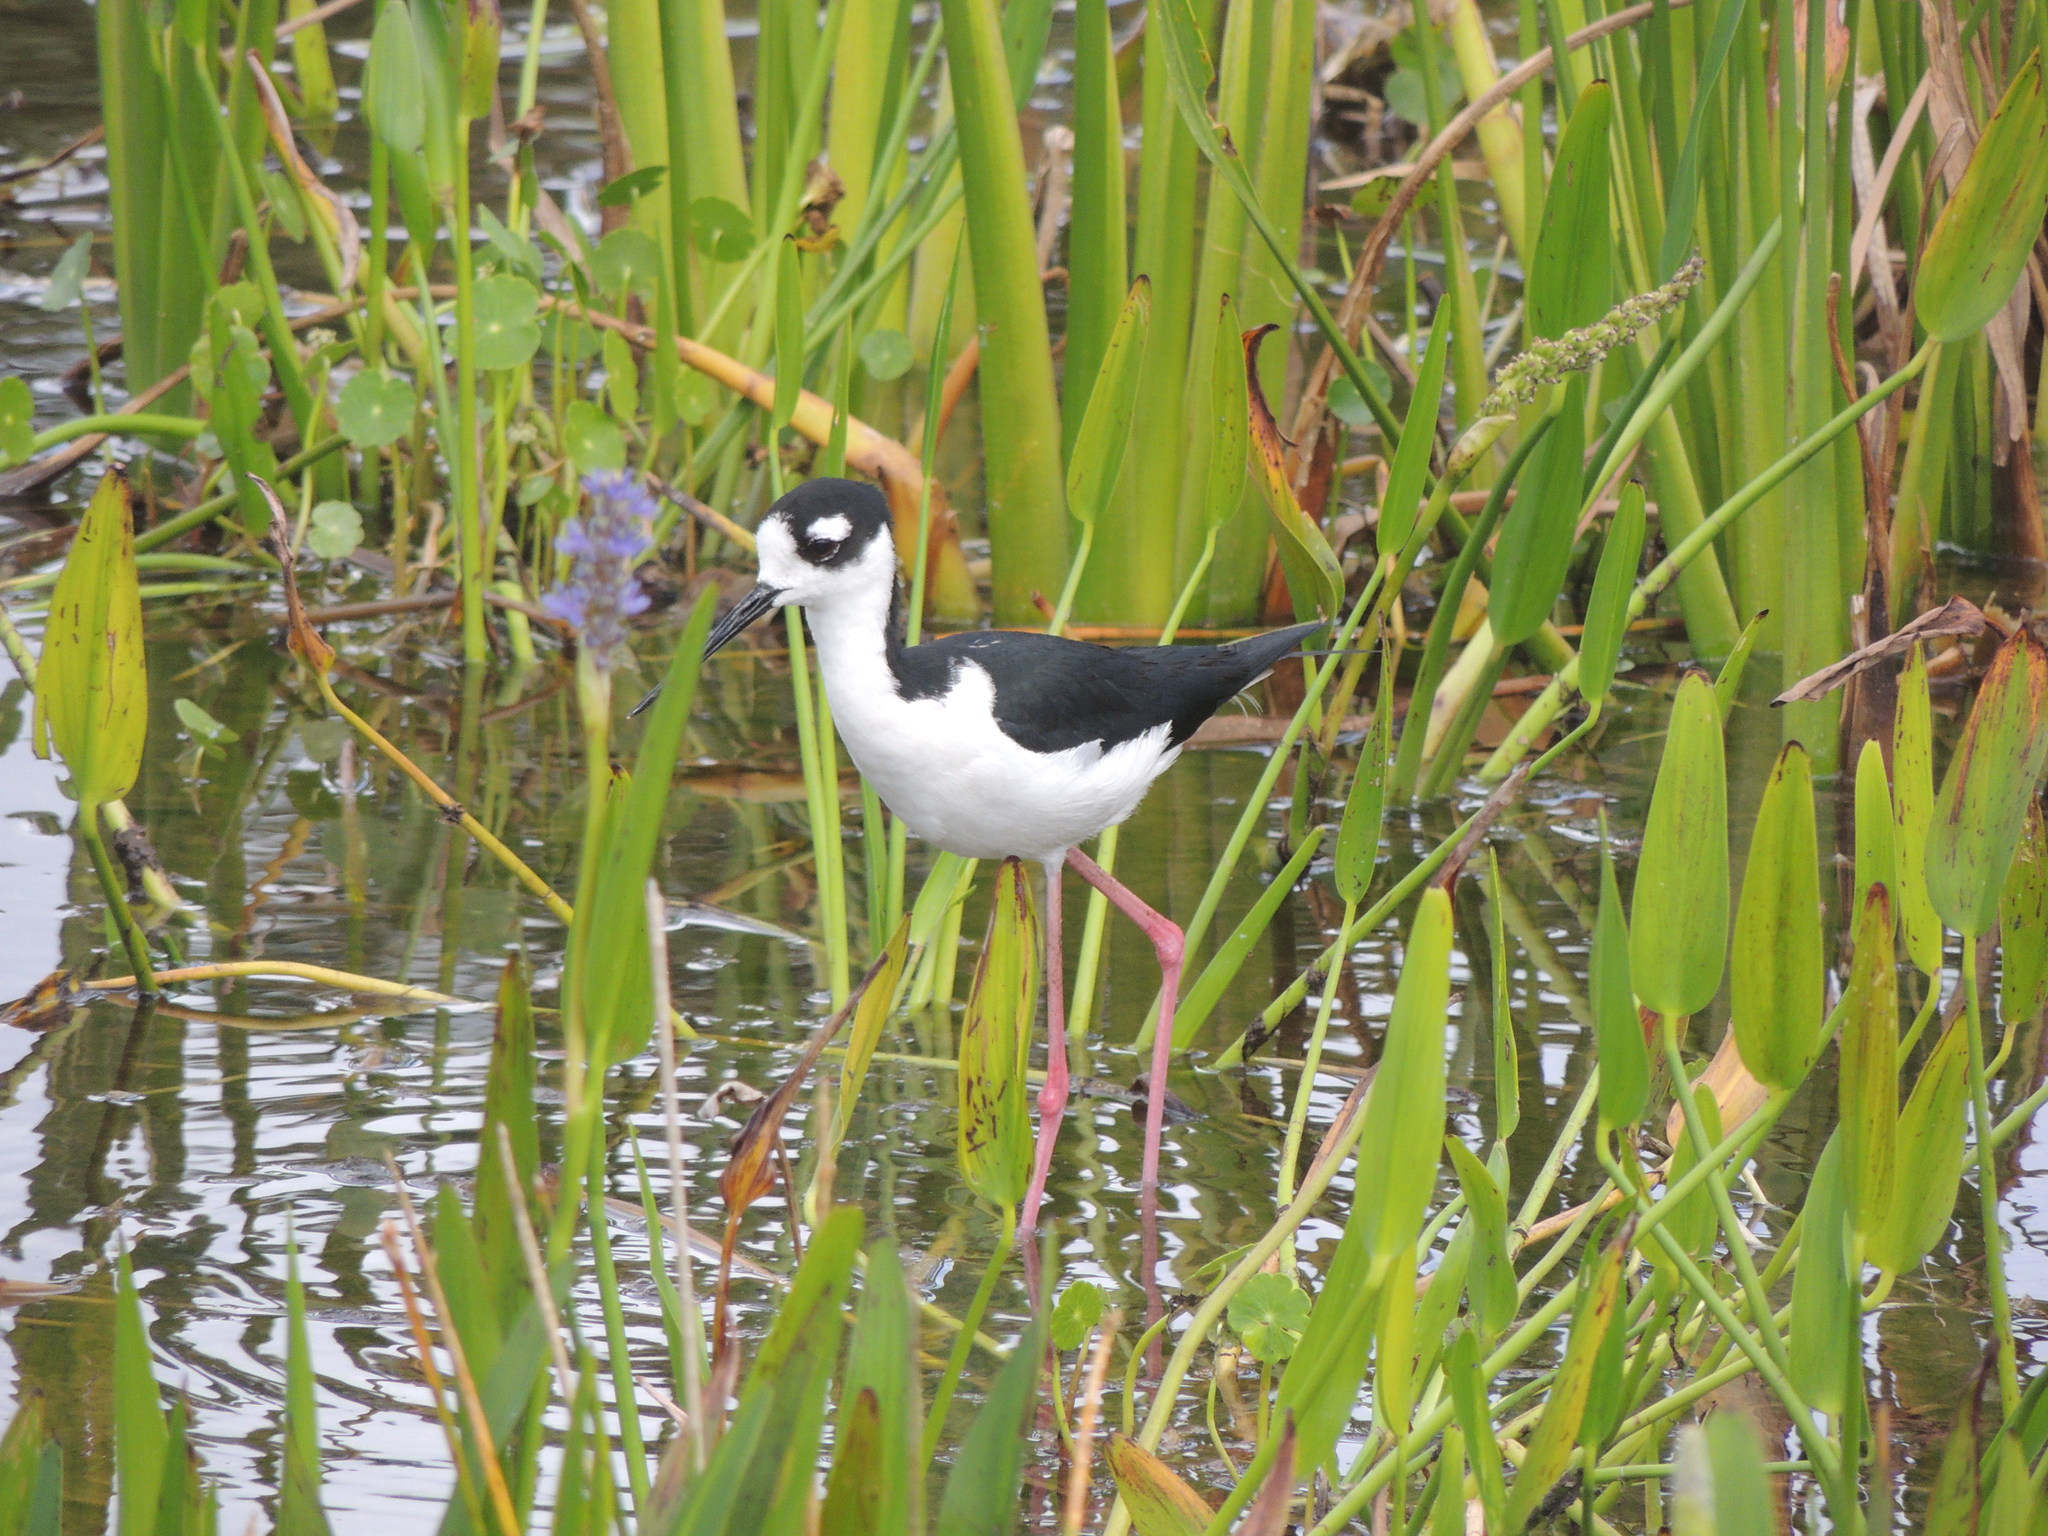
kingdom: Animalia
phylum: Chordata
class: Aves
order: Charadriiformes
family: Recurvirostridae
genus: Himantopus
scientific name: Himantopus mexicanus
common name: Black-necked stilt
